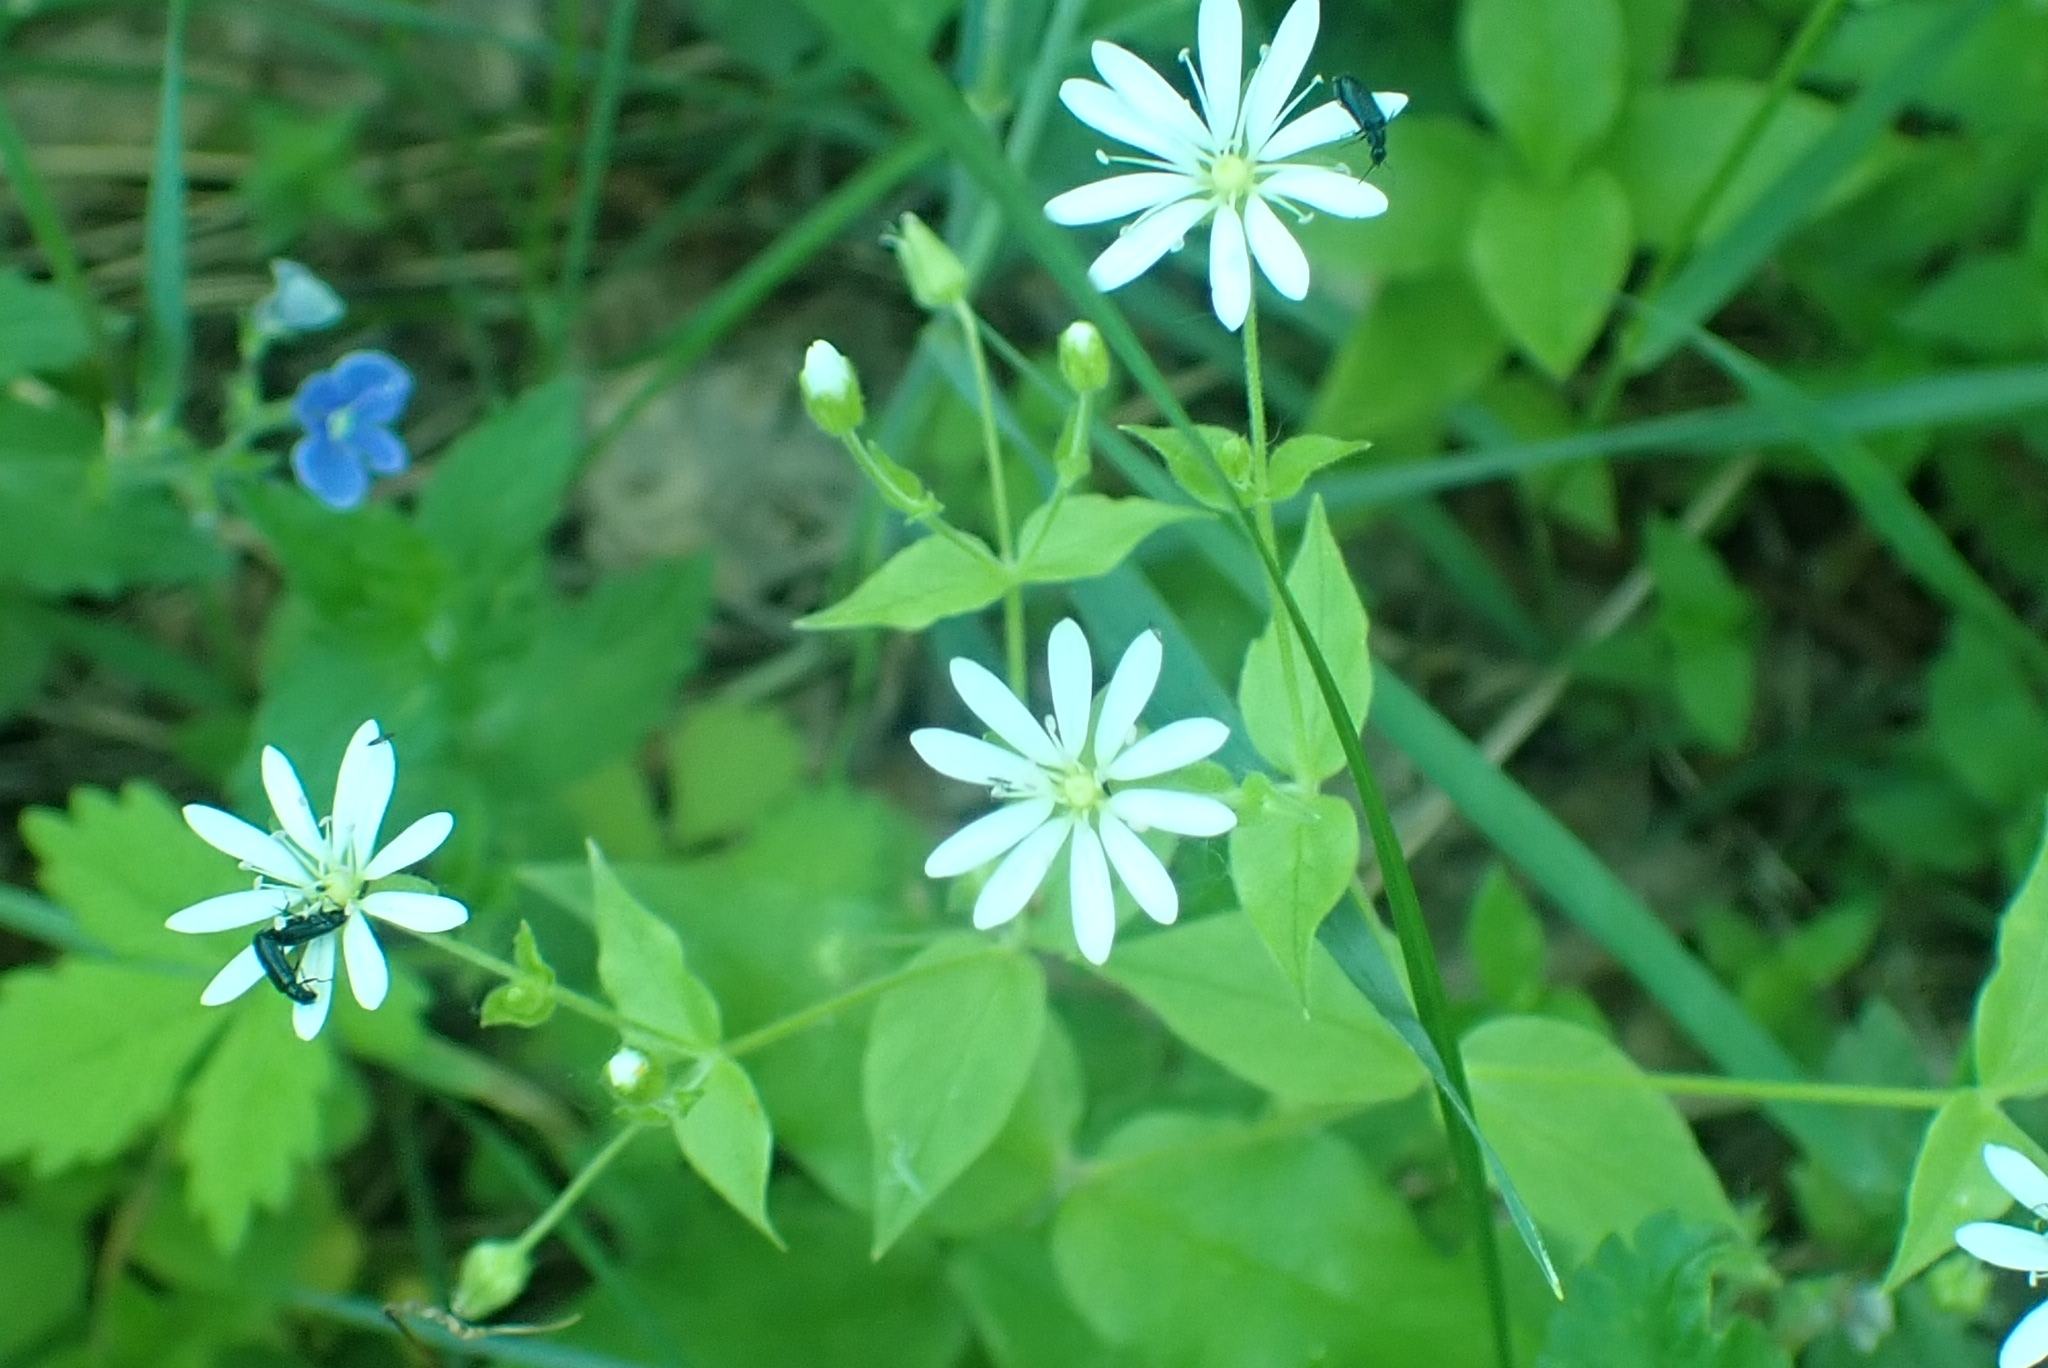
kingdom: Plantae
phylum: Tracheophyta
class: Magnoliopsida
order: Caryophyllales
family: Caryophyllaceae
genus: Stellaria
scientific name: Stellaria bungeana
